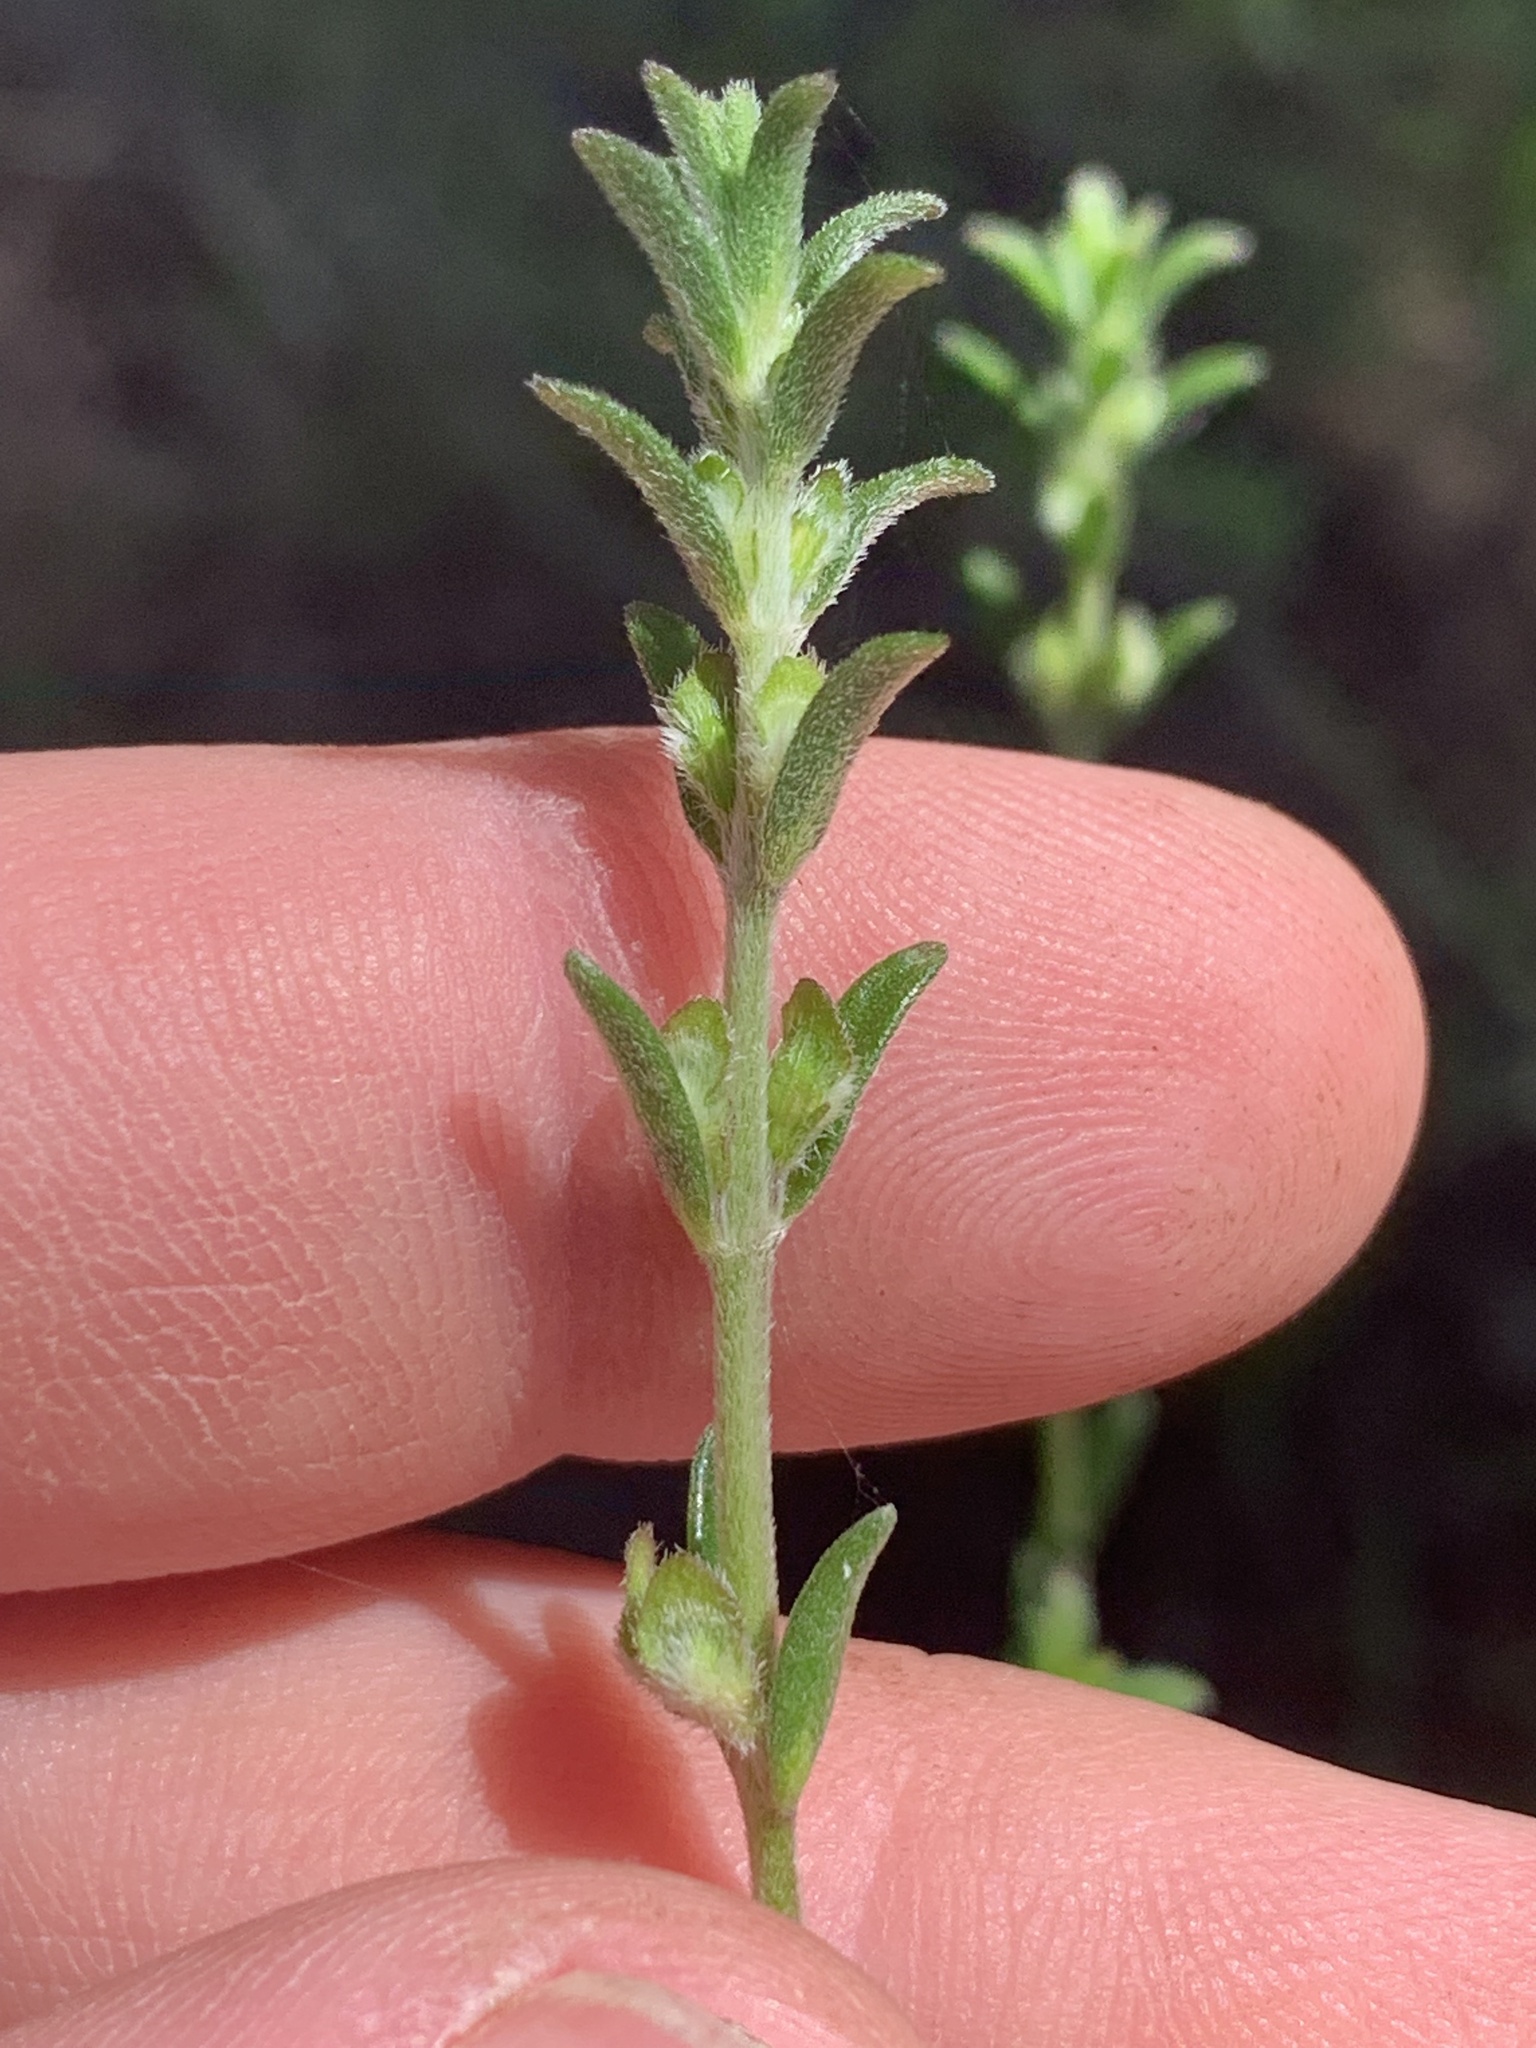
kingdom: Plantae
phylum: Tracheophyta
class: Magnoliopsida
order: Lamiales
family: Lamiaceae
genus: Prostanthera
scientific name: Prostanthera saxicola
